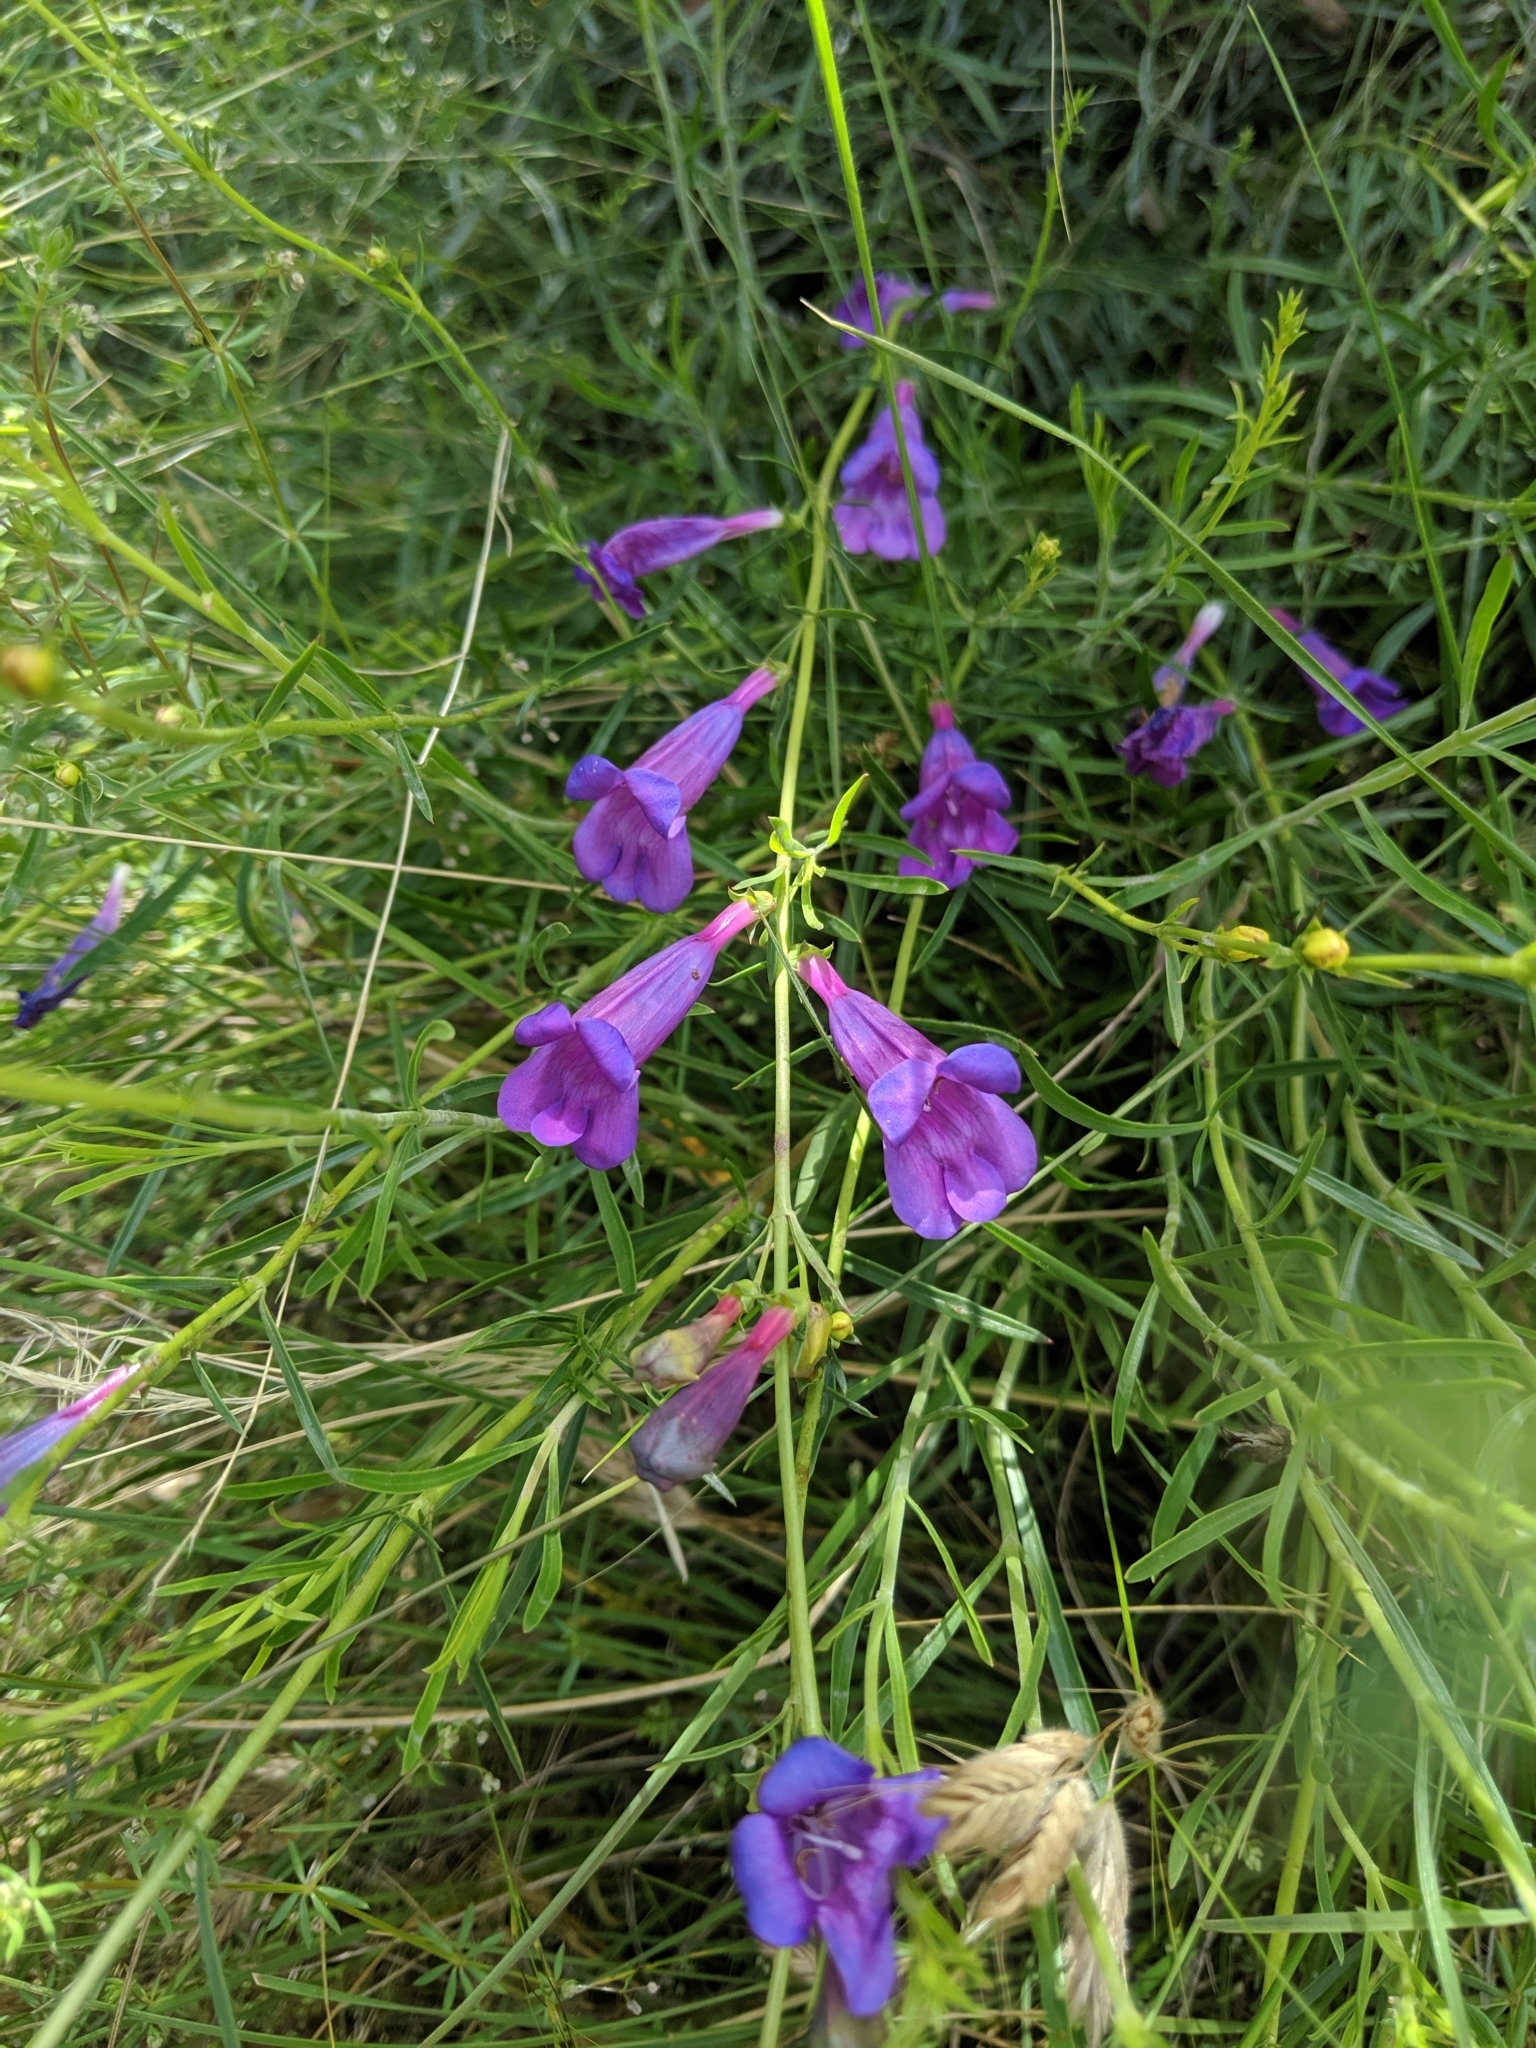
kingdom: Plantae
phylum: Tracheophyta
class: Magnoliopsida
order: Lamiales
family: Plantaginaceae
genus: Penstemon
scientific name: Penstemon heterophyllus
